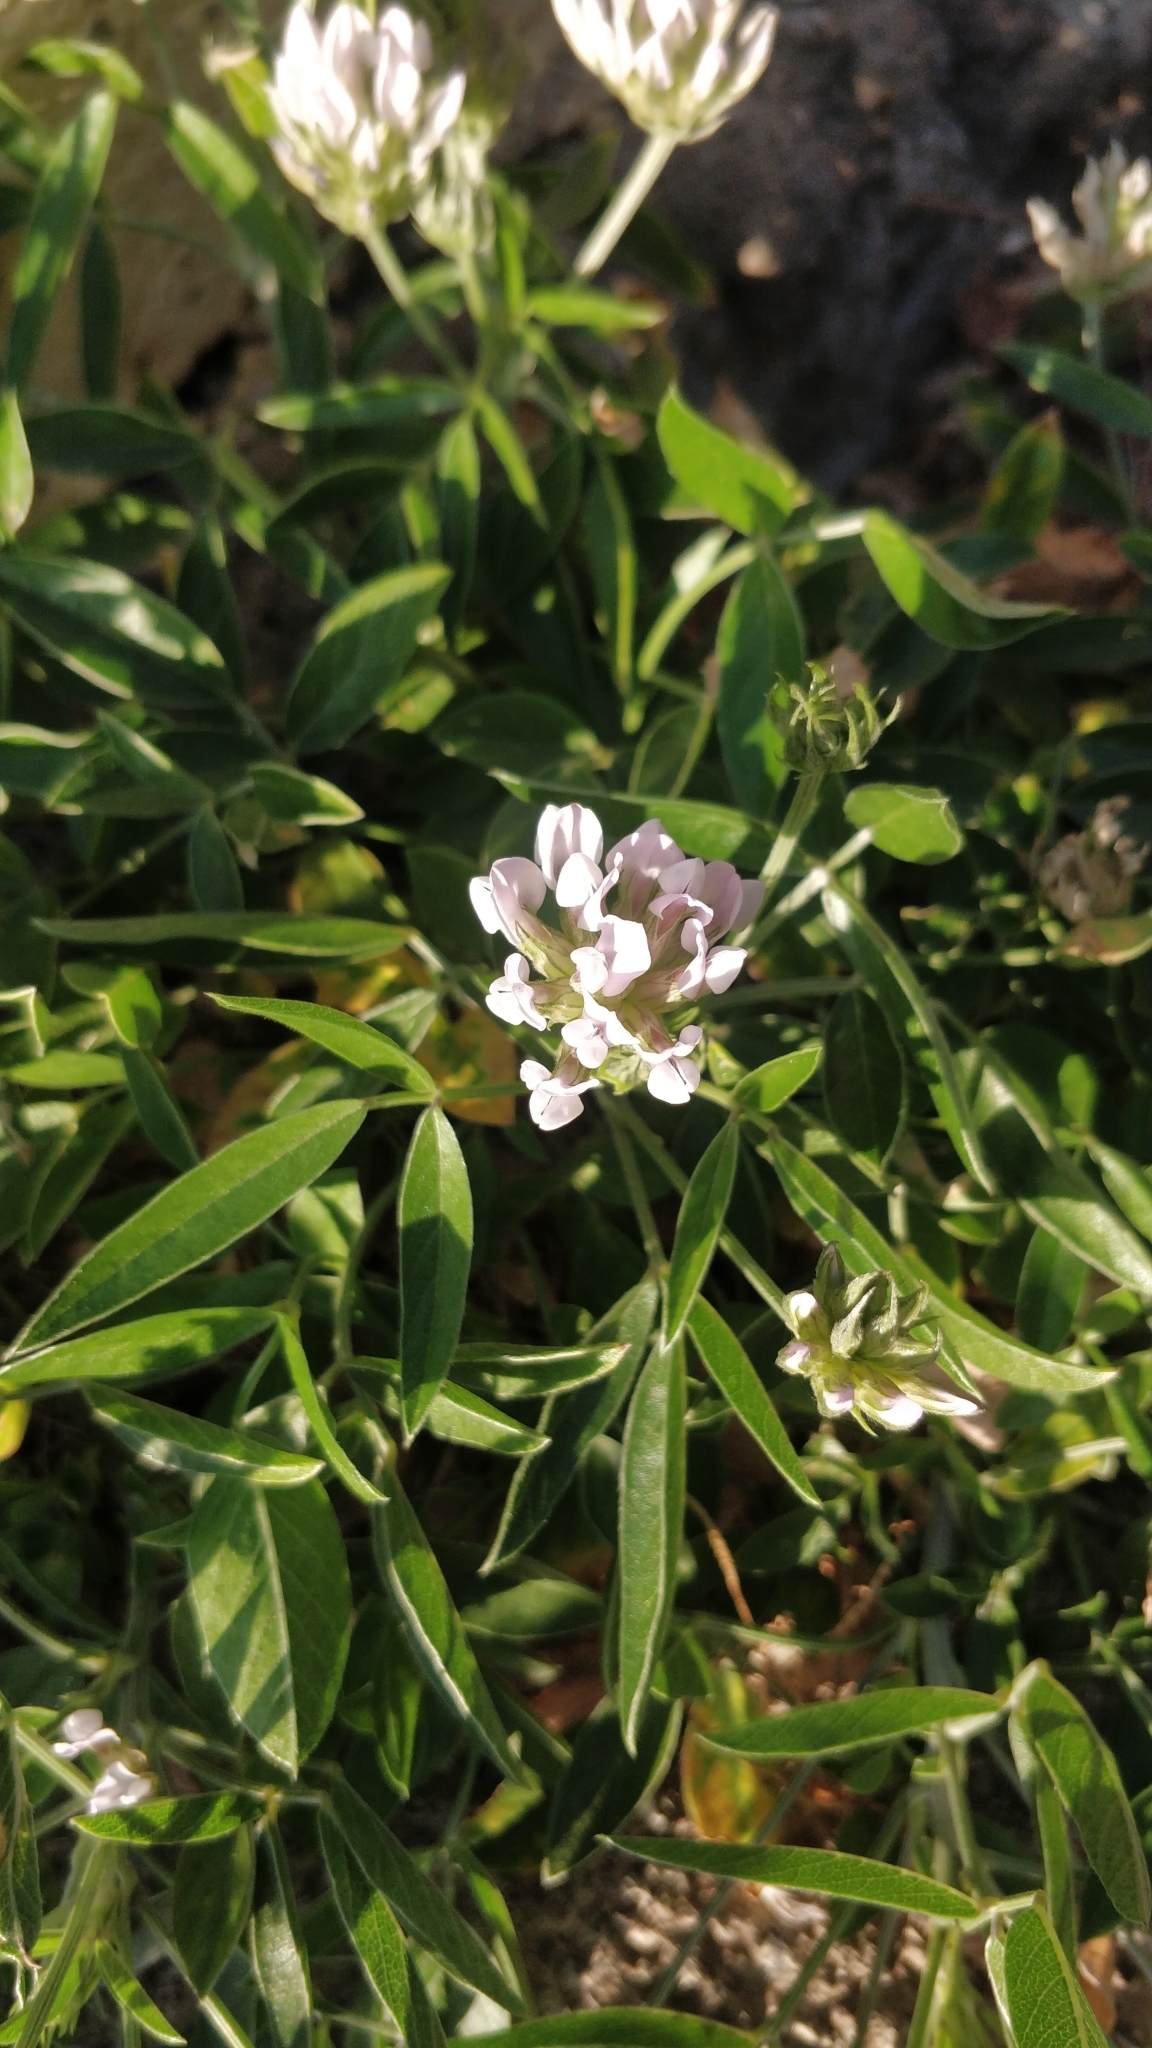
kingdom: Plantae
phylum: Tracheophyta
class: Magnoliopsida
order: Fabales
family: Fabaceae
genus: Bituminaria
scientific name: Bituminaria bituminosa
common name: Arabian pea
